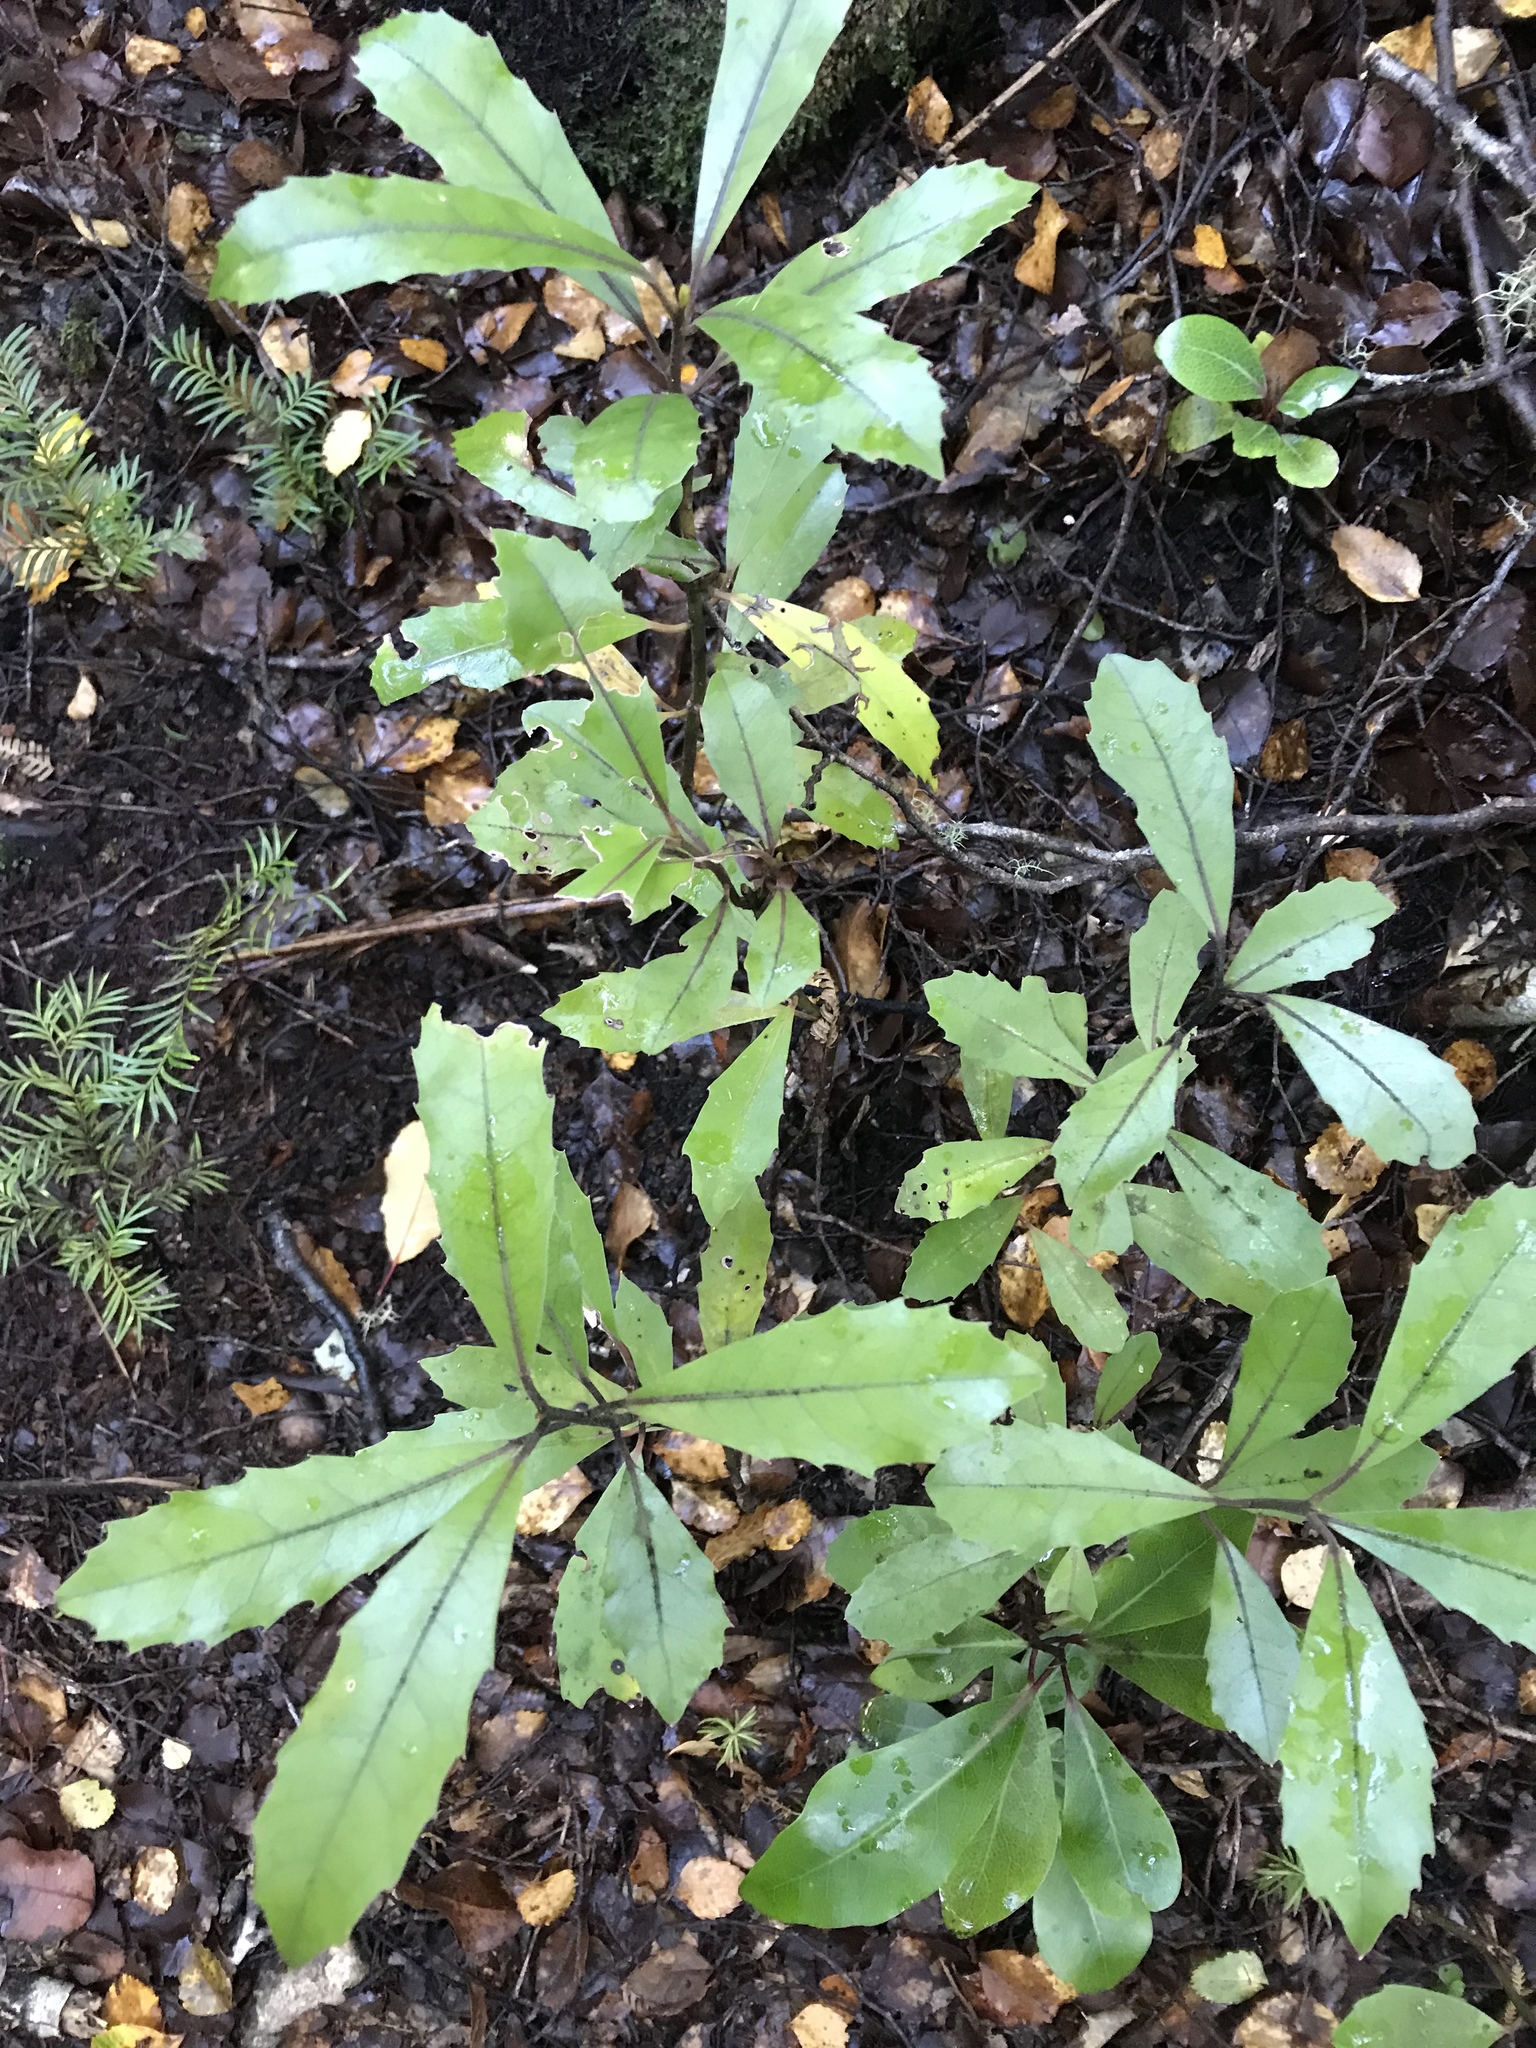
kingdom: Plantae
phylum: Tracheophyta
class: Magnoliopsida
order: Laurales
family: Monimiaceae
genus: Hedycarya
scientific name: Hedycarya arborea
